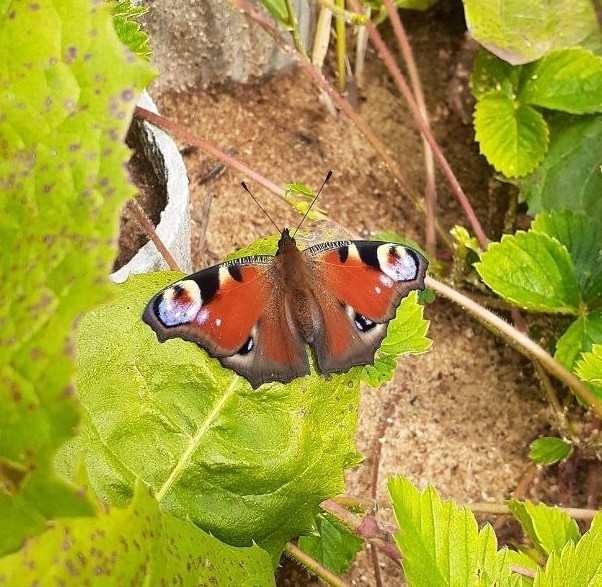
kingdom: Animalia
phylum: Arthropoda
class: Insecta
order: Lepidoptera
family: Nymphalidae
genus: Aglais
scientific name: Aglais io
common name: Peacock
